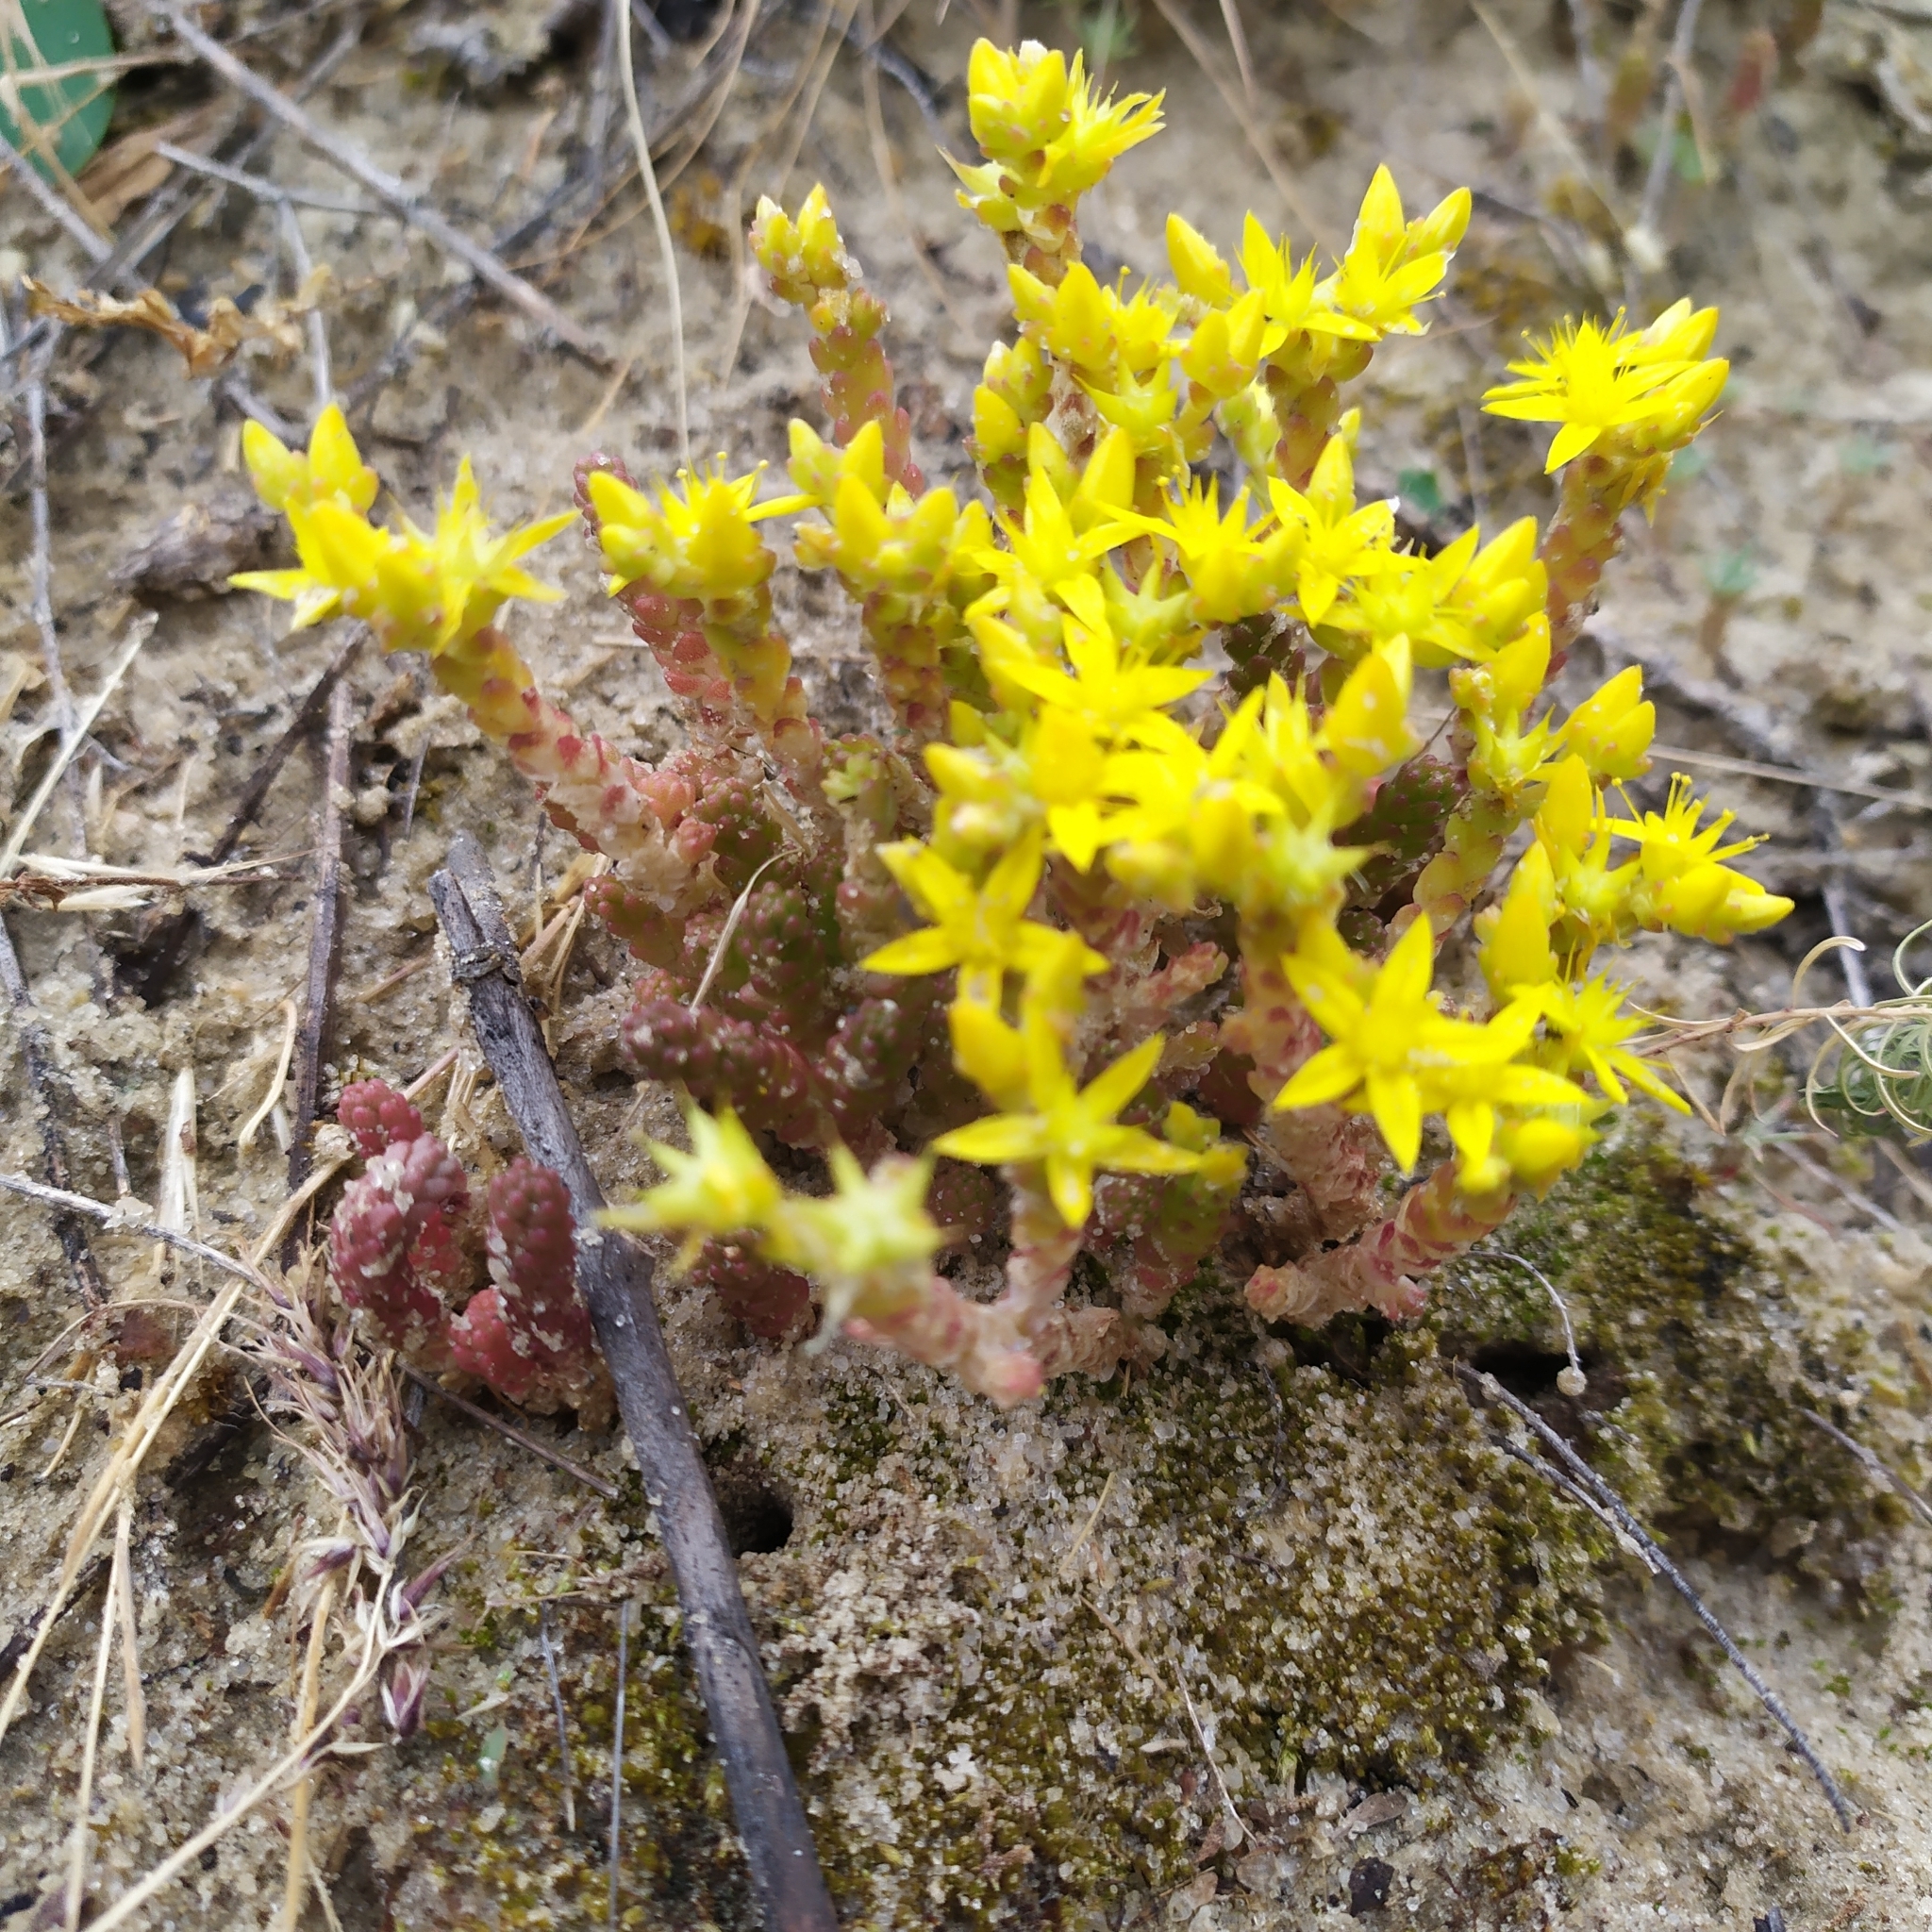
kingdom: Plantae
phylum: Tracheophyta
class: Magnoliopsida
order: Saxifragales
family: Crassulaceae
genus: Sedum
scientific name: Sedum acre
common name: Biting stonecrop
